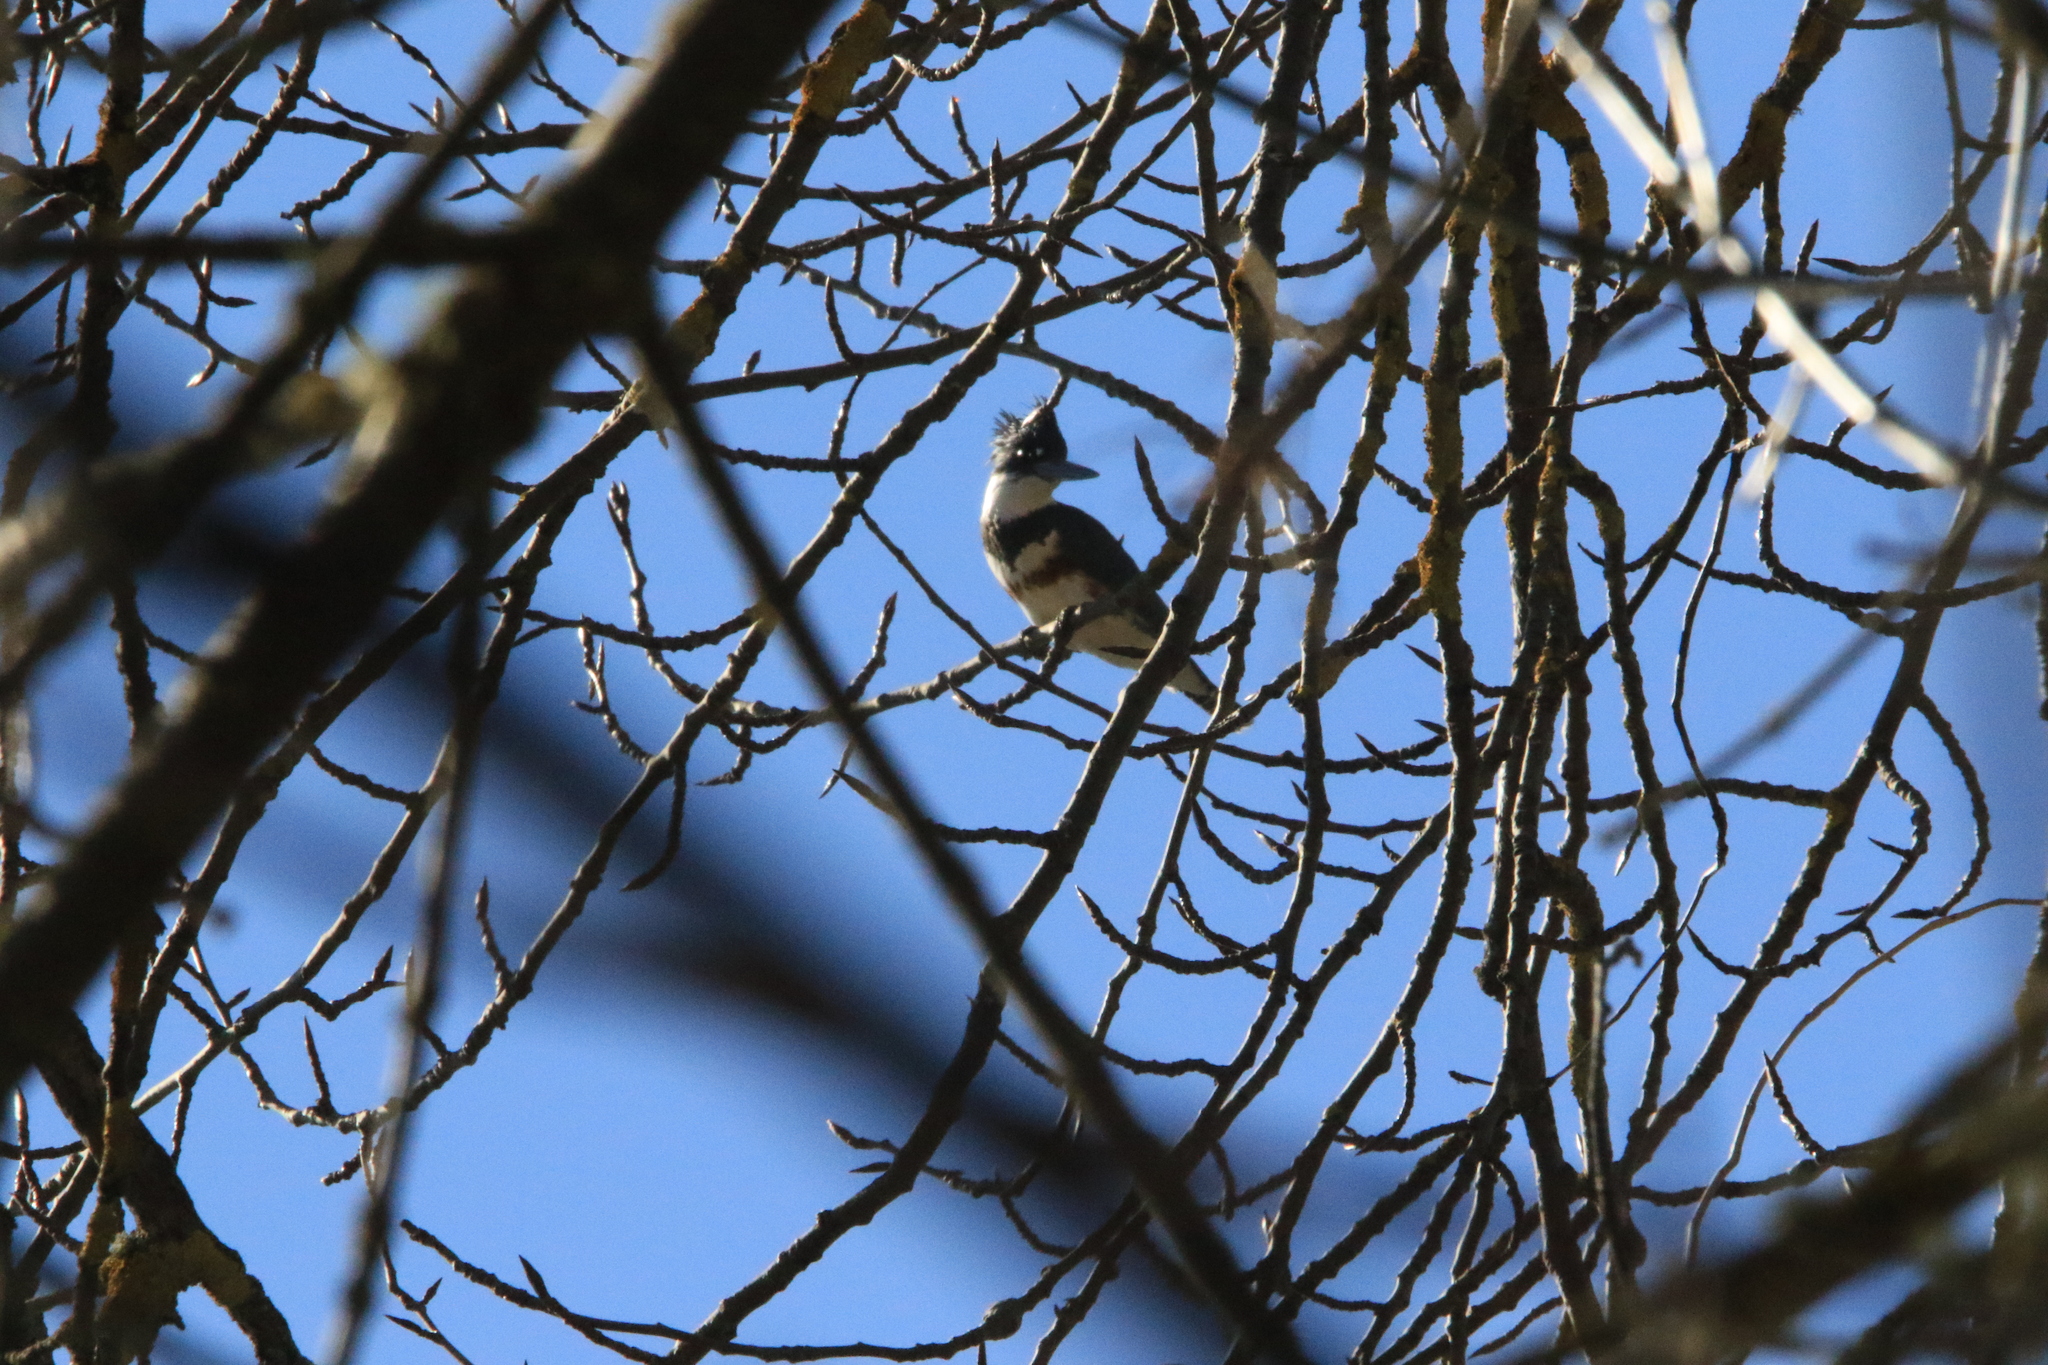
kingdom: Animalia
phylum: Chordata
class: Aves
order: Coraciiformes
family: Alcedinidae
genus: Megaceryle
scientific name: Megaceryle alcyon
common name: Belted kingfisher
